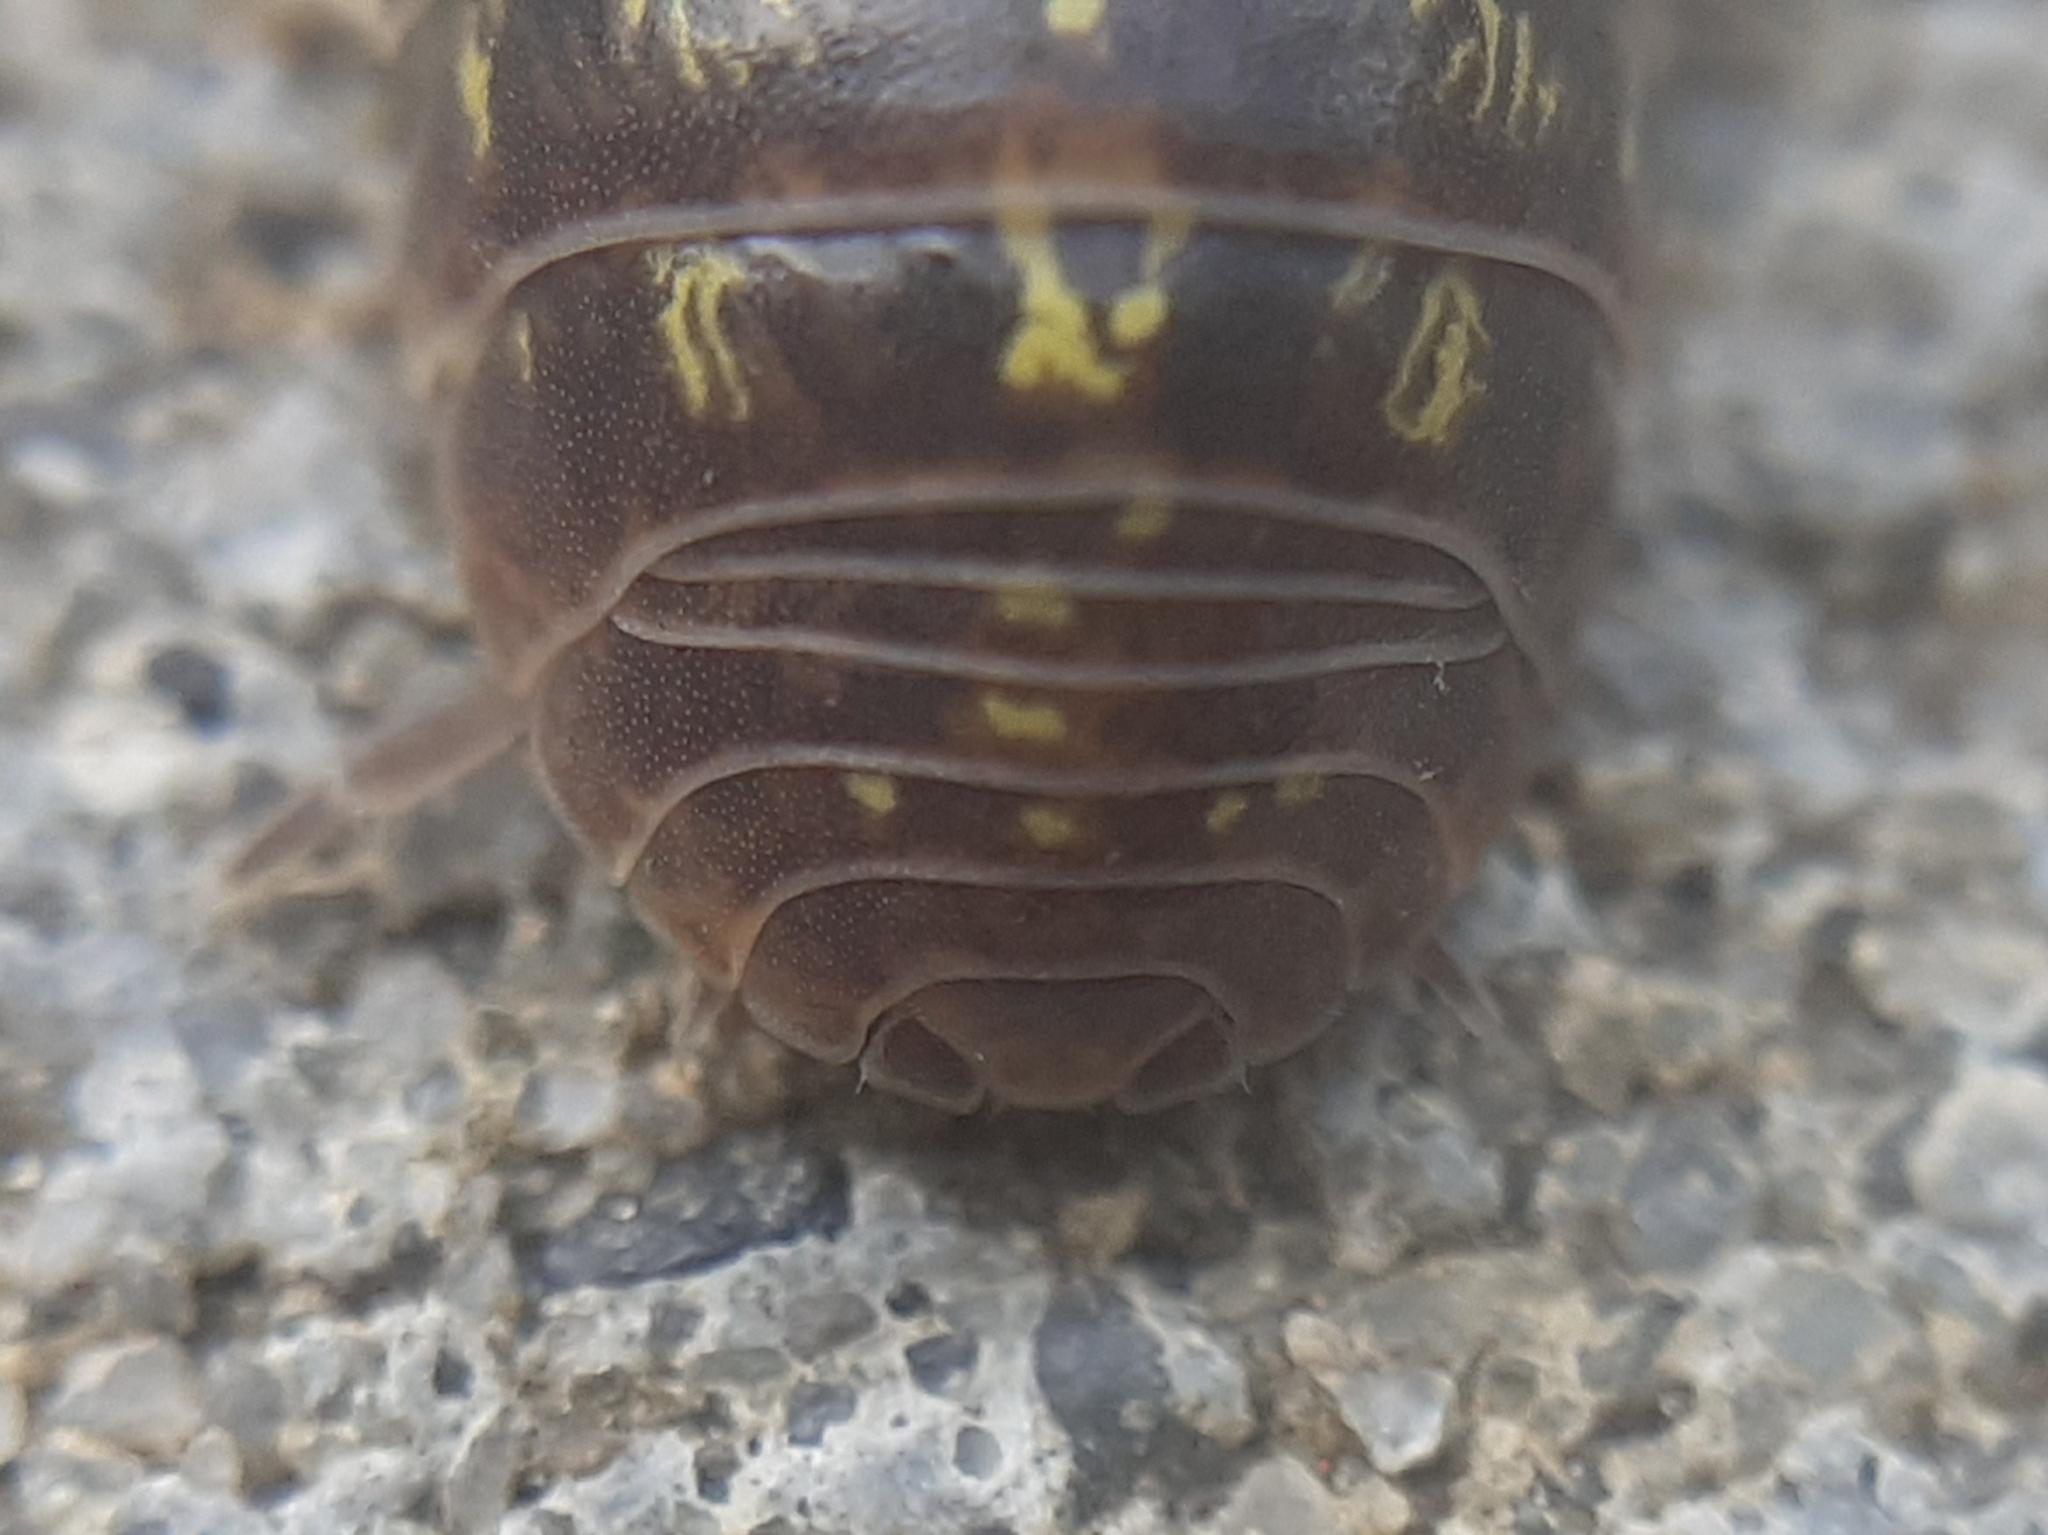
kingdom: Animalia
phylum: Arthropoda
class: Malacostraca
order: Isopoda
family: Armadillidiidae
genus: Armadillidium
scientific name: Armadillidium vulgare
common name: Common pill woodlouse
